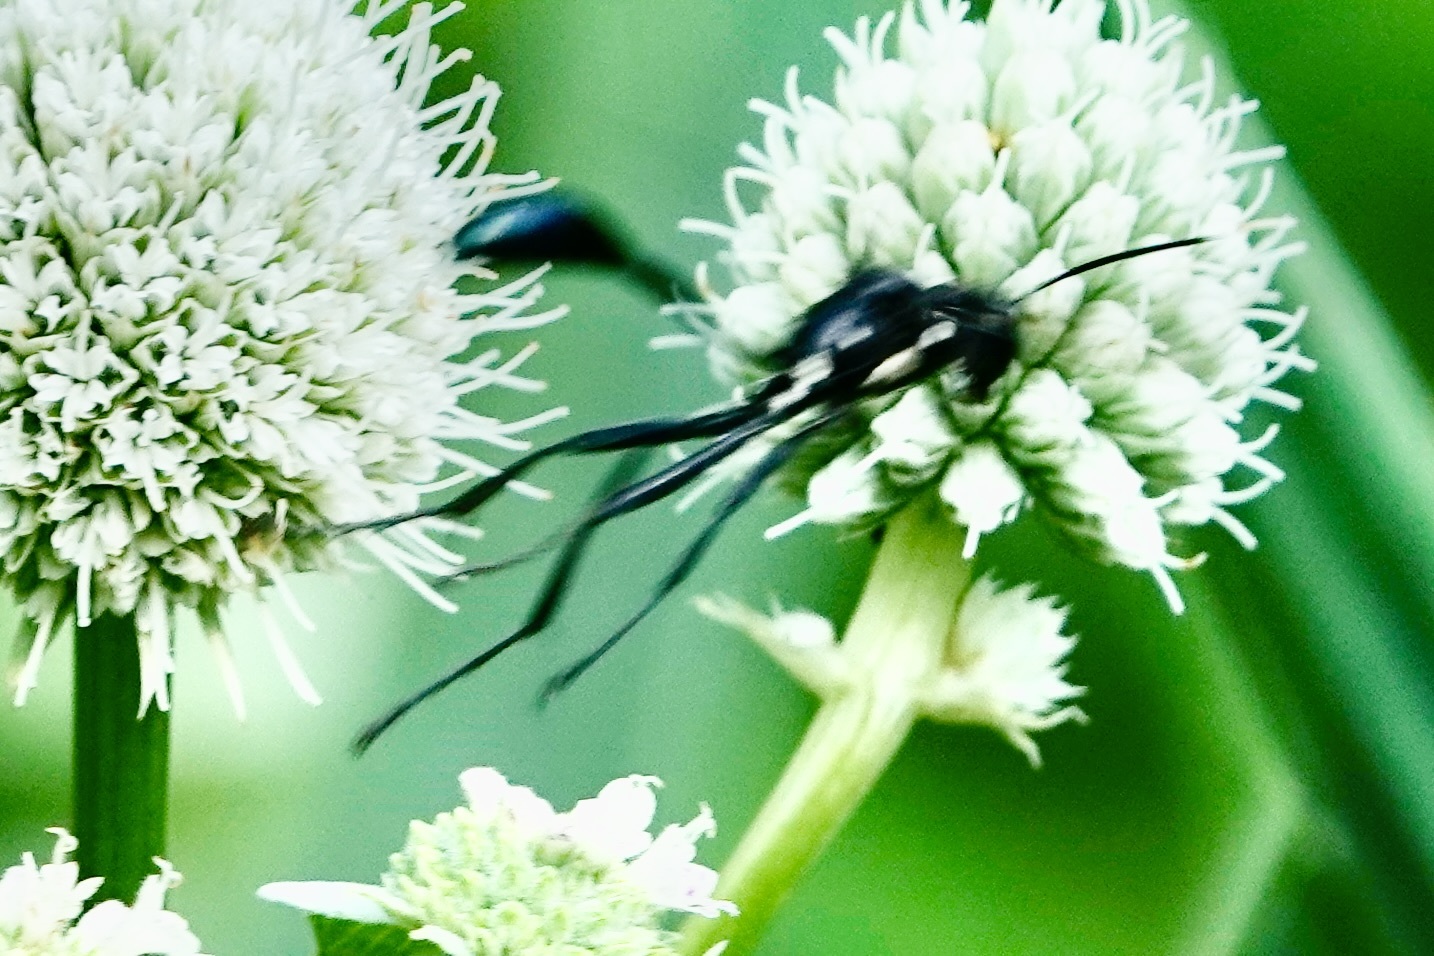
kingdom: Animalia
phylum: Arthropoda
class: Insecta
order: Hymenoptera
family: Sphecidae
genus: Eremnophila
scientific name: Eremnophila aureonotata
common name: Gold-marked thread-waisted wasp
